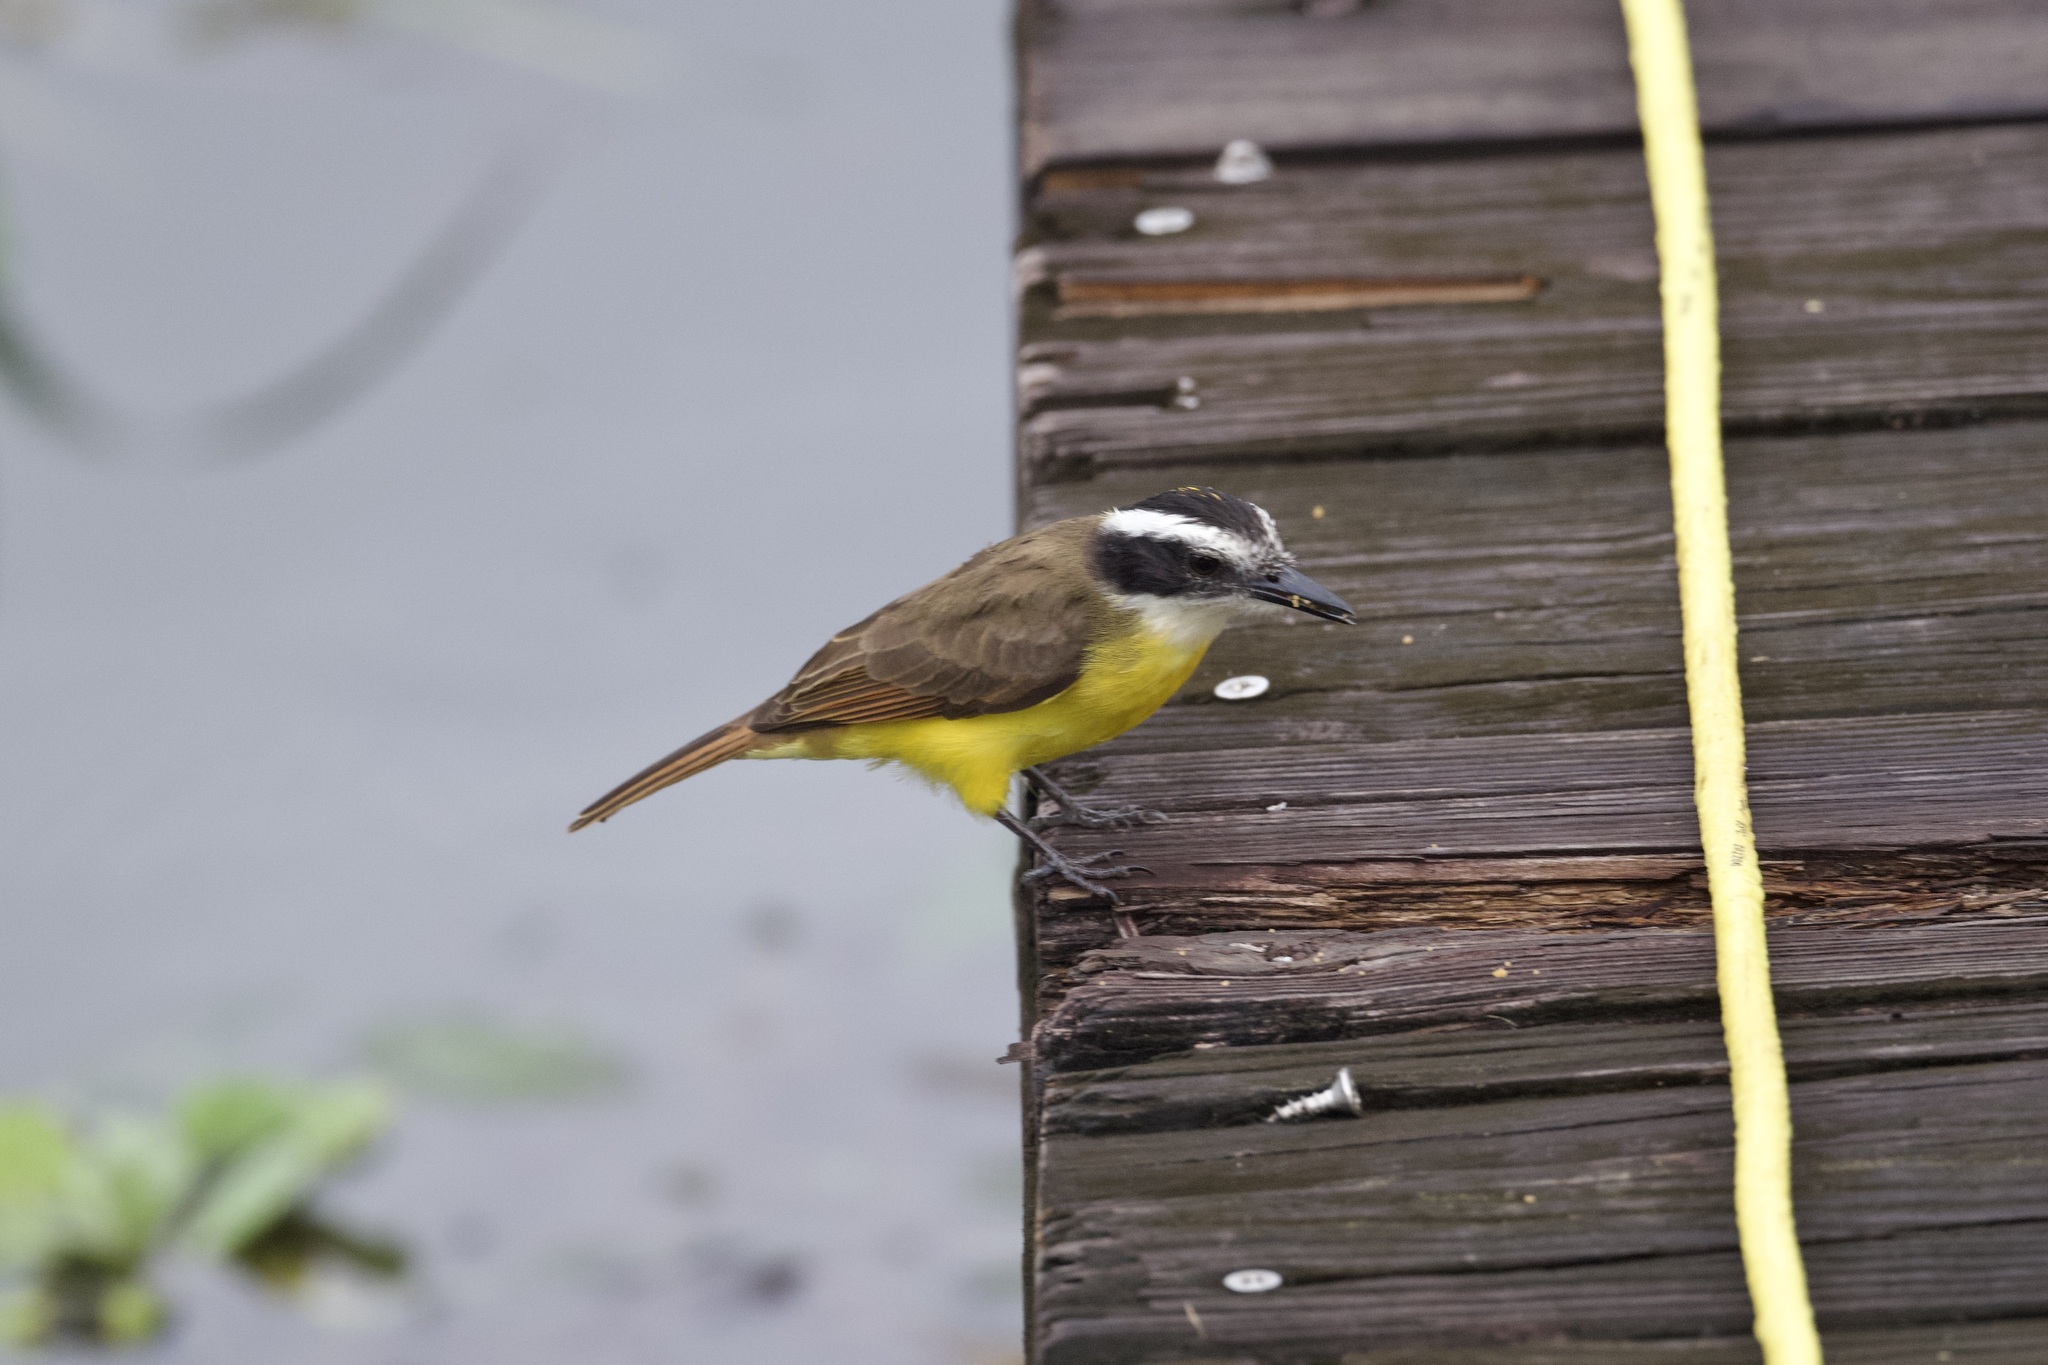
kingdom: Animalia
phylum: Chordata
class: Aves
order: Passeriformes
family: Tyrannidae
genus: Pitangus
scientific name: Pitangus lictor
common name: Lesser kiskadee
